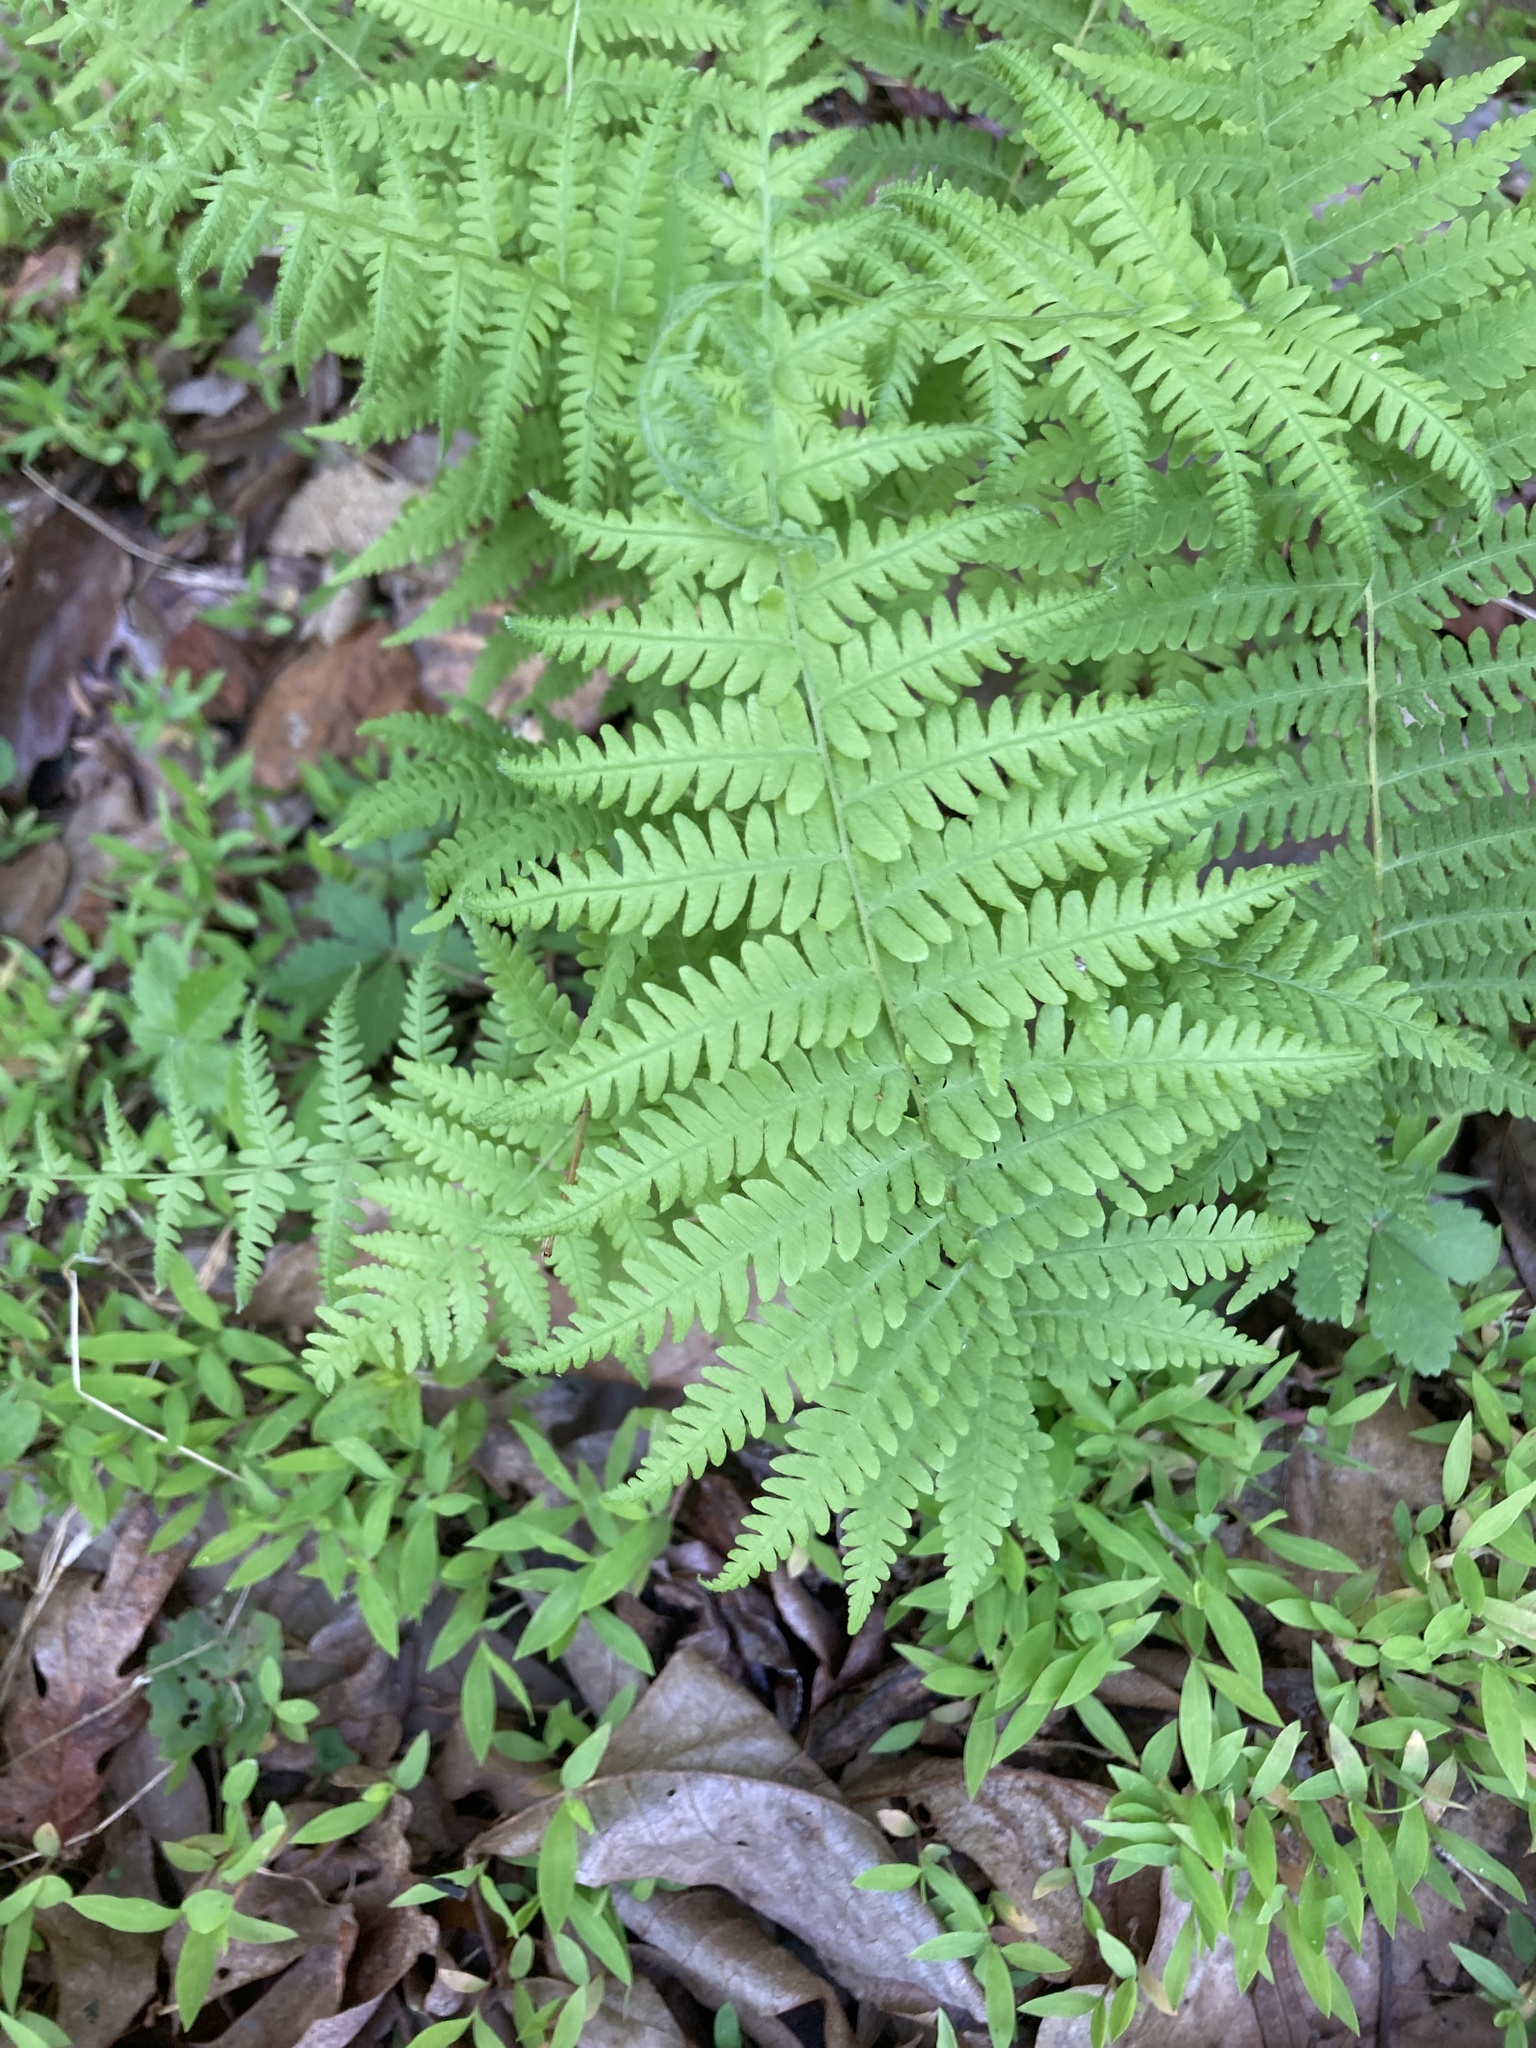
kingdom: Plantae
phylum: Tracheophyta
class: Polypodiopsida
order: Polypodiales
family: Thelypteridaceae
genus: Amauropelta
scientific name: Amauropelta noveboracensis
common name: New york fern
